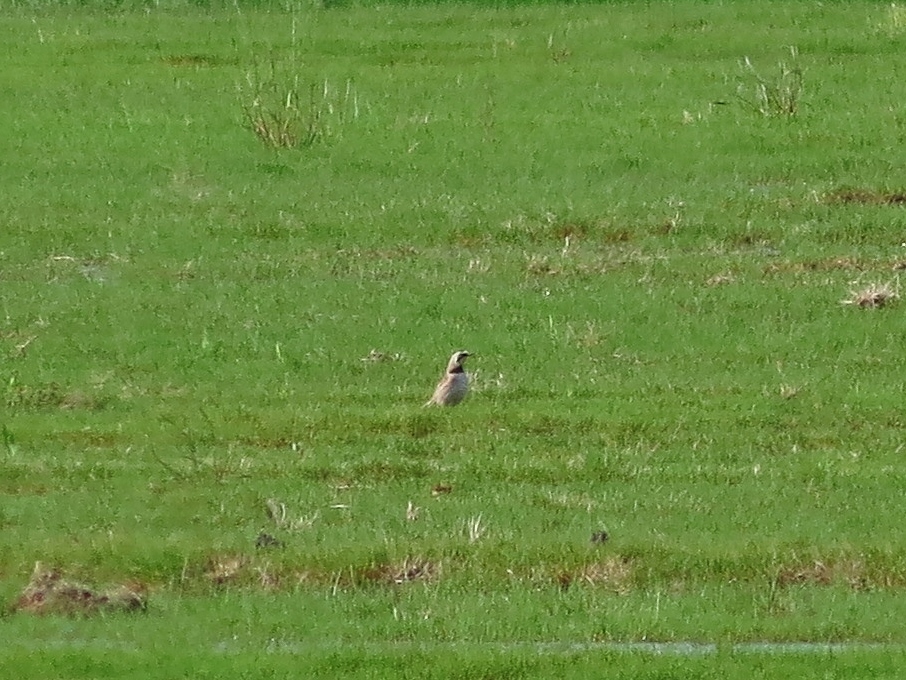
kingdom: Animalia
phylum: Chordata
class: Aves
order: Passeriformes
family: Alaudidae
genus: Eremophila
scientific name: Eremophila alpestris
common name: Horned lark
